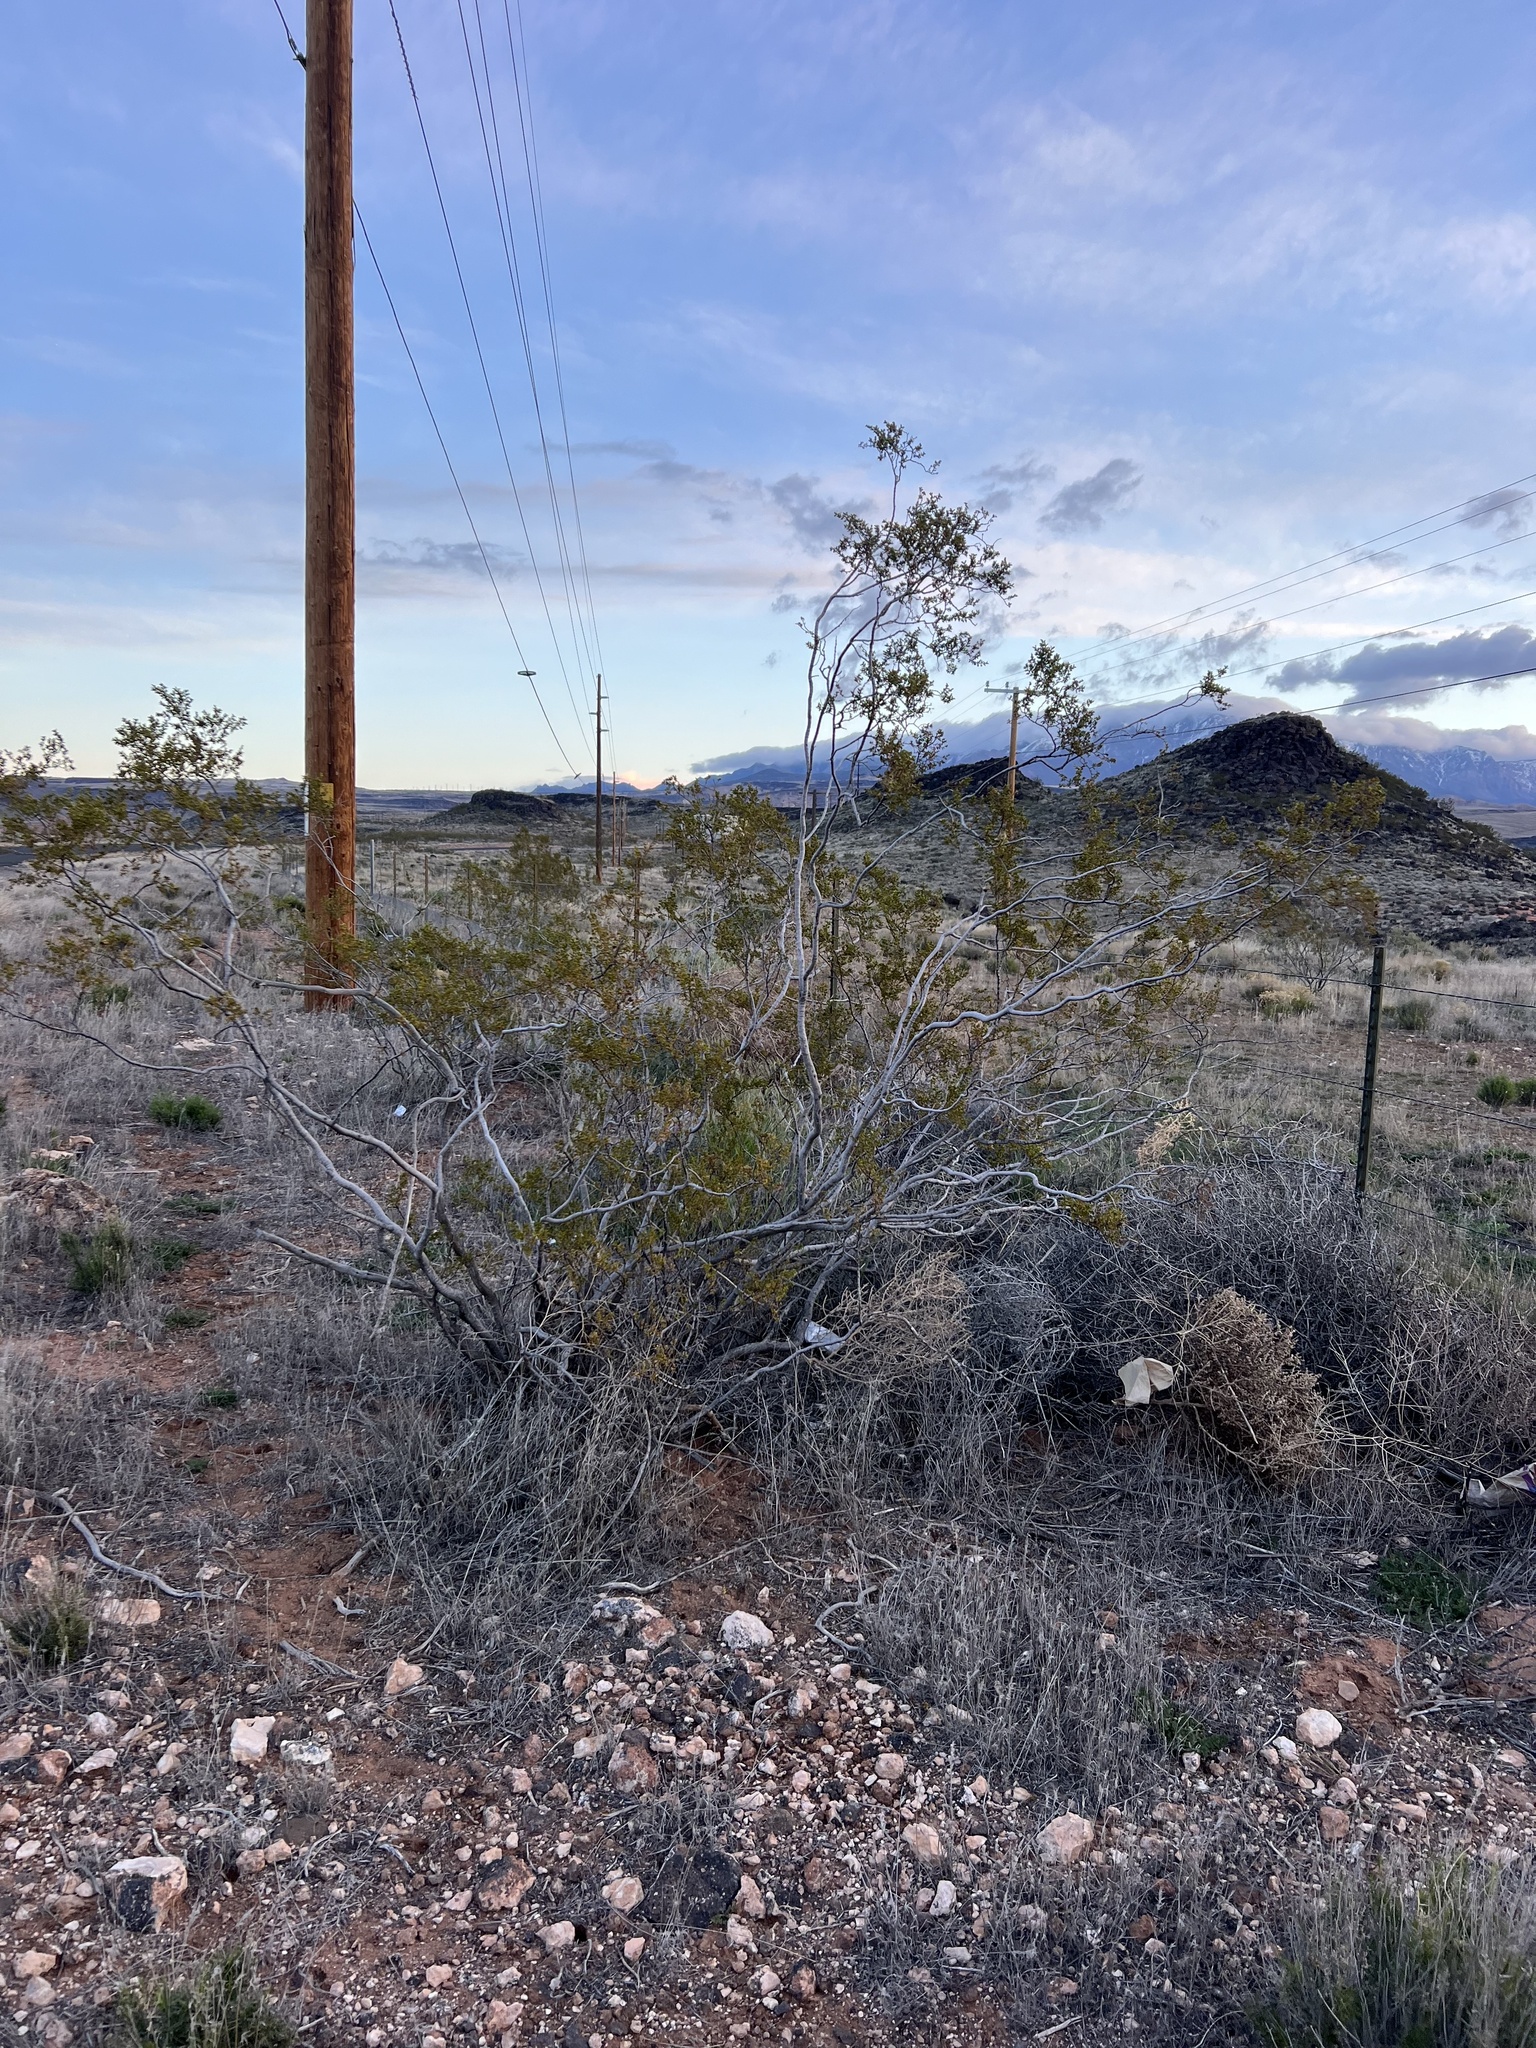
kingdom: Plantae
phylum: Tracheophyta
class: Magnoliopsida
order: Zygophyllales
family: Zygophyllaceae
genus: Larrea
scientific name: Larrea tridentata
